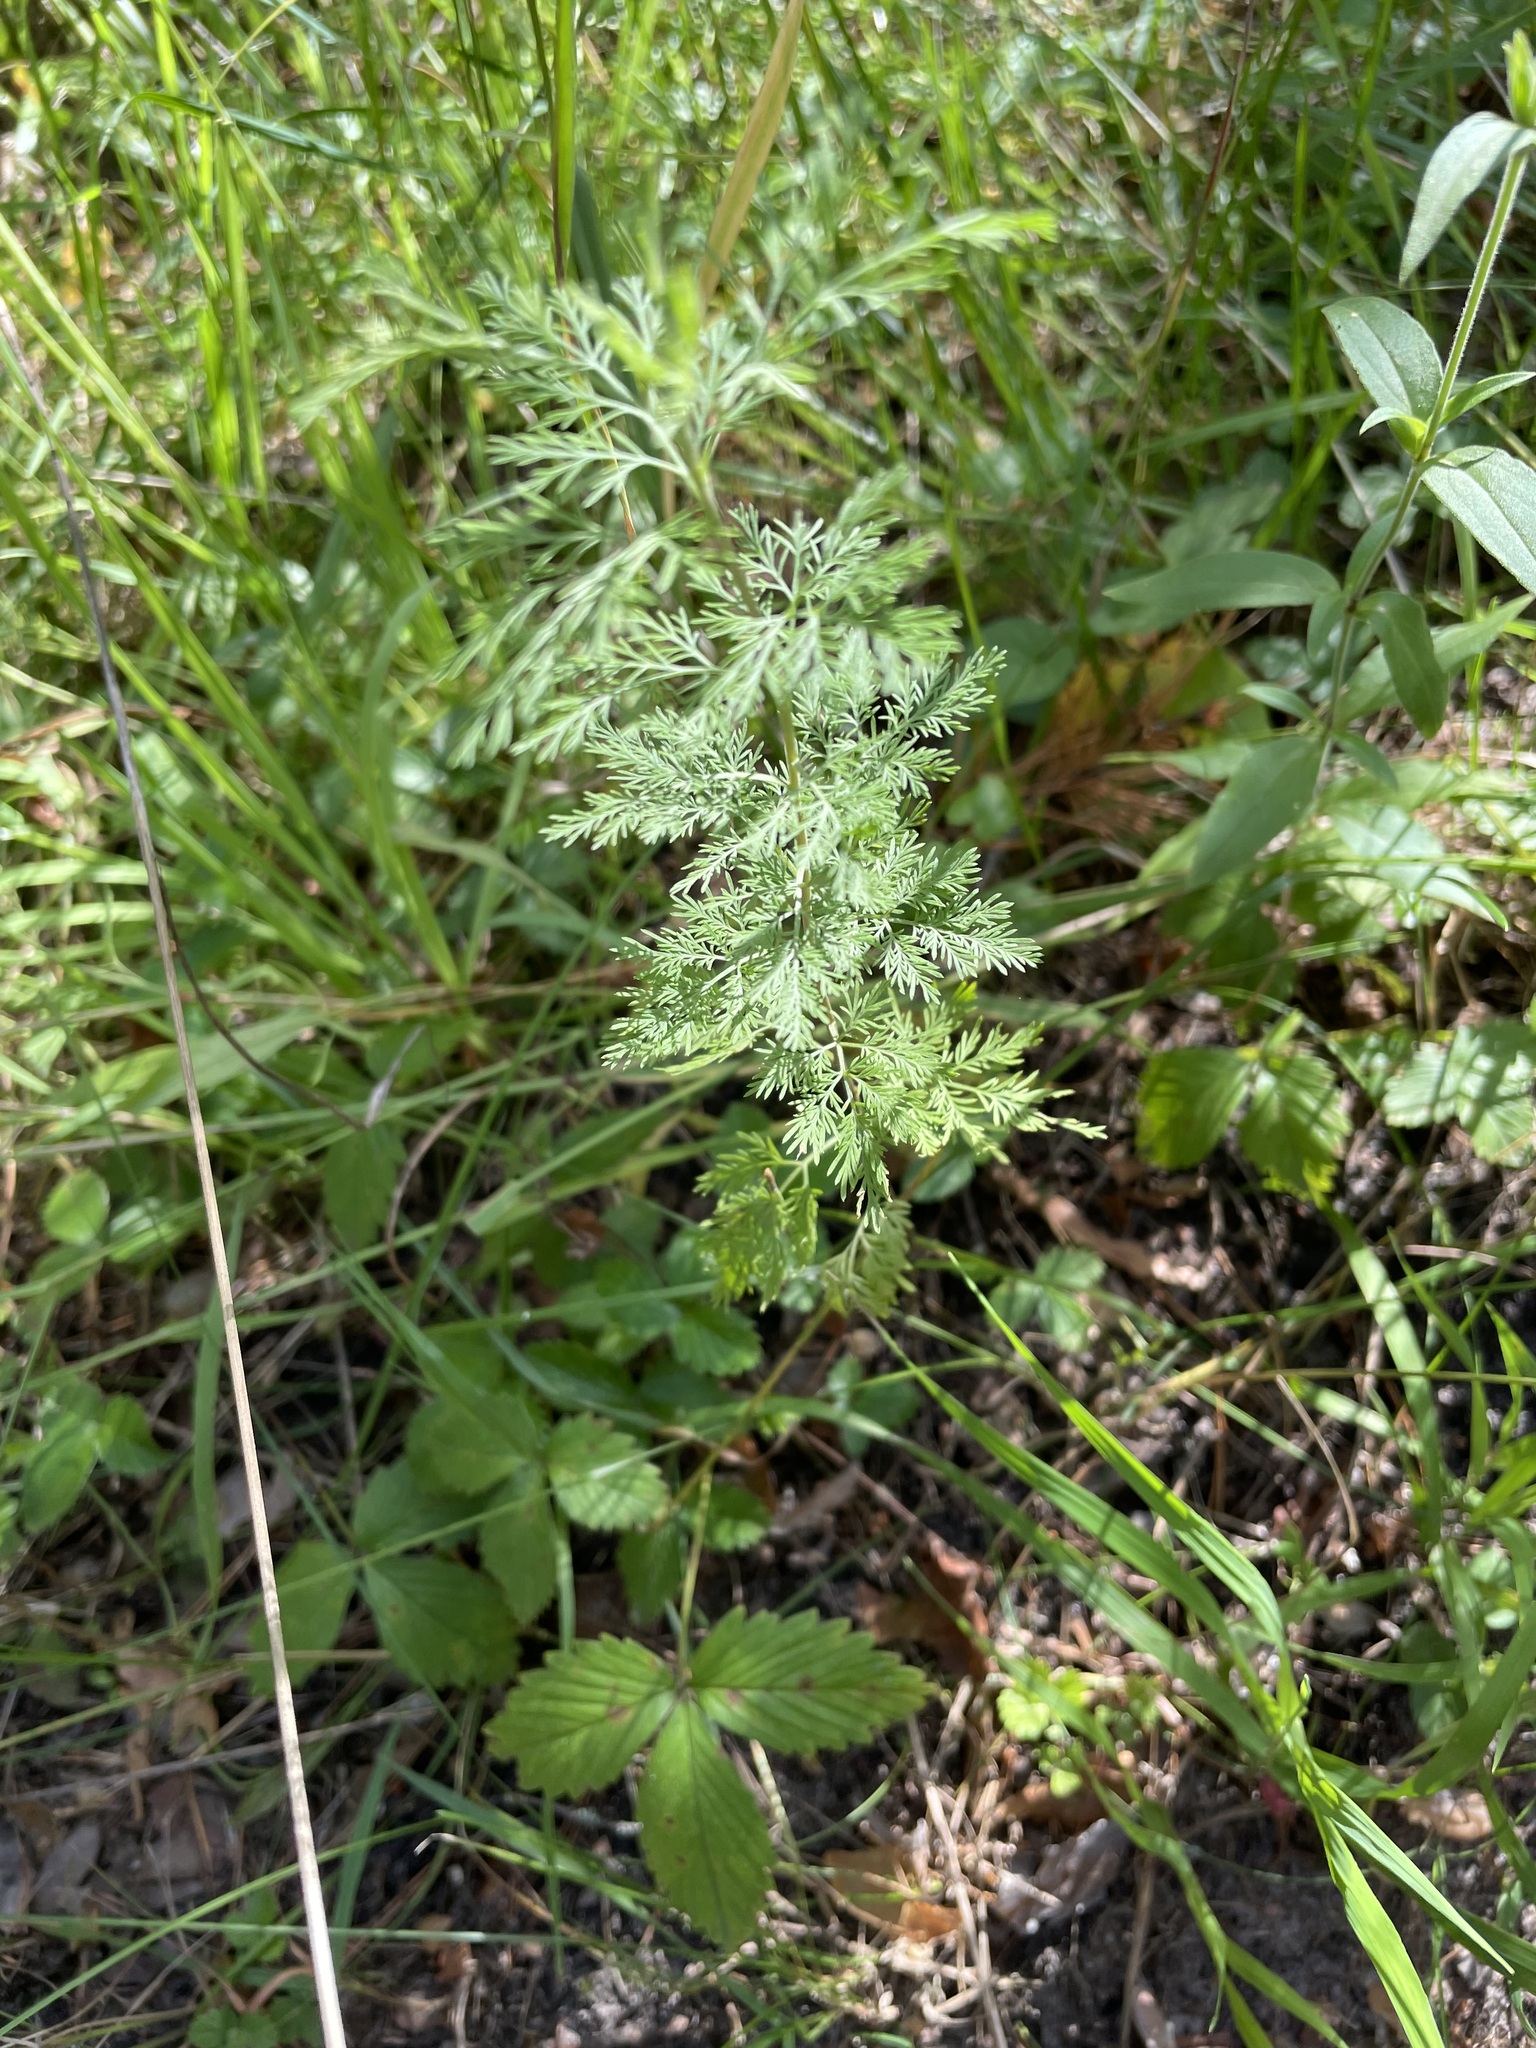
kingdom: Plantae
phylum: Tracheophyta
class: Magnoliopsida
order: Asterales
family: Asteraceae
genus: Artemisia
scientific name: Artemisia abrotanum
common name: Southernwood
